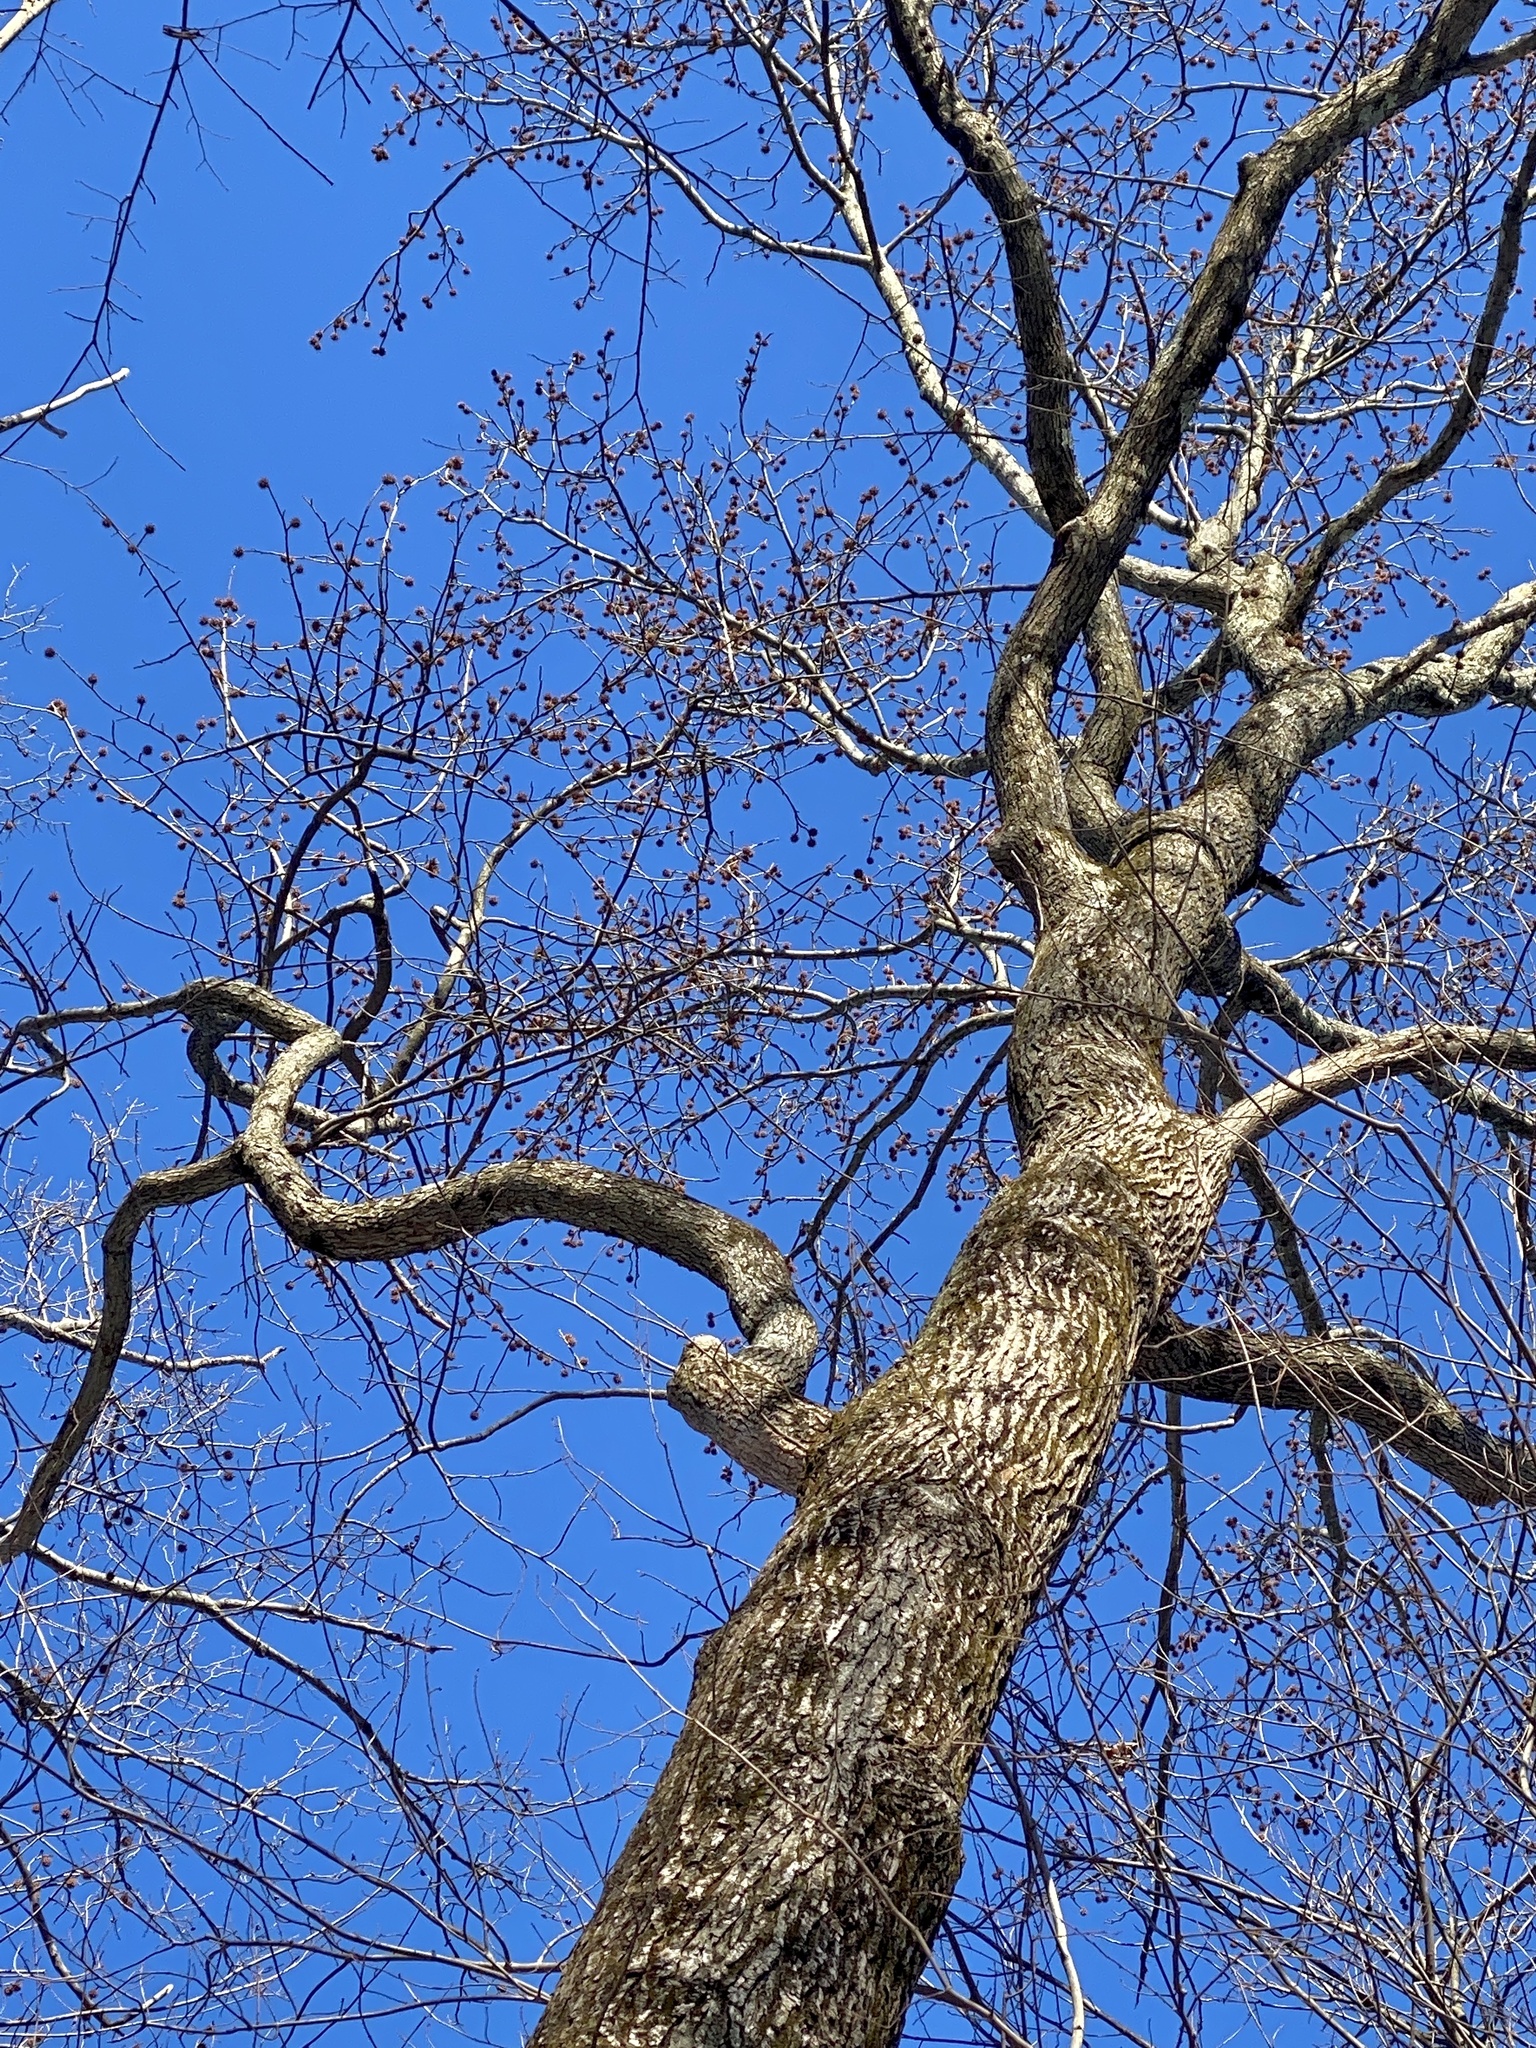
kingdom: Plantae
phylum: Tracheophyta
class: Magnoliopsida
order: Saxifragales
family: Altingiaceae
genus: Liquidambar
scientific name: Liquidambar styraciflua
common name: Sweet gum
